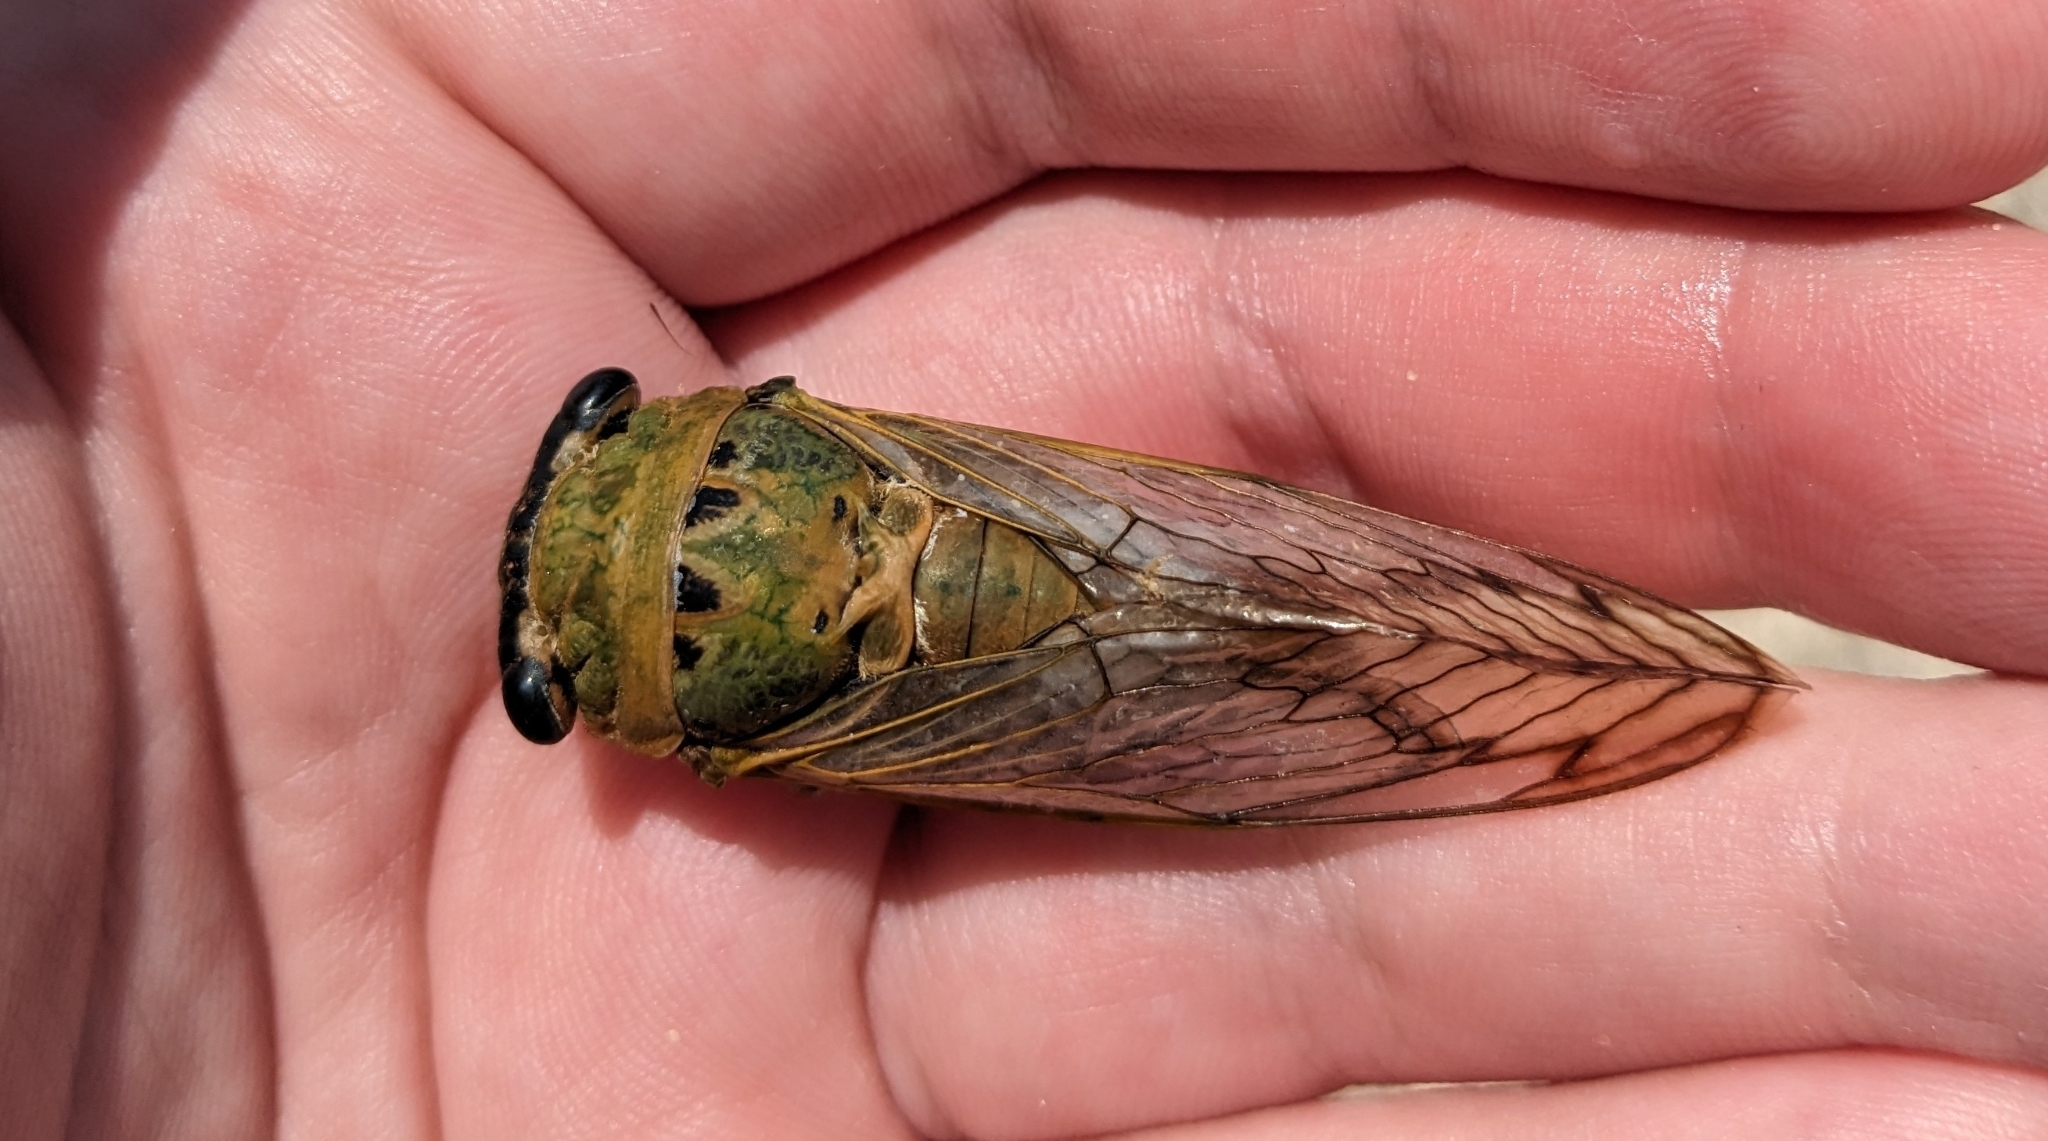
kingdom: Animalia
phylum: Arthropoda
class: Insecta
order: Hemiptera
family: Cicadidae
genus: Neotibicen
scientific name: Neotibicen superbus
